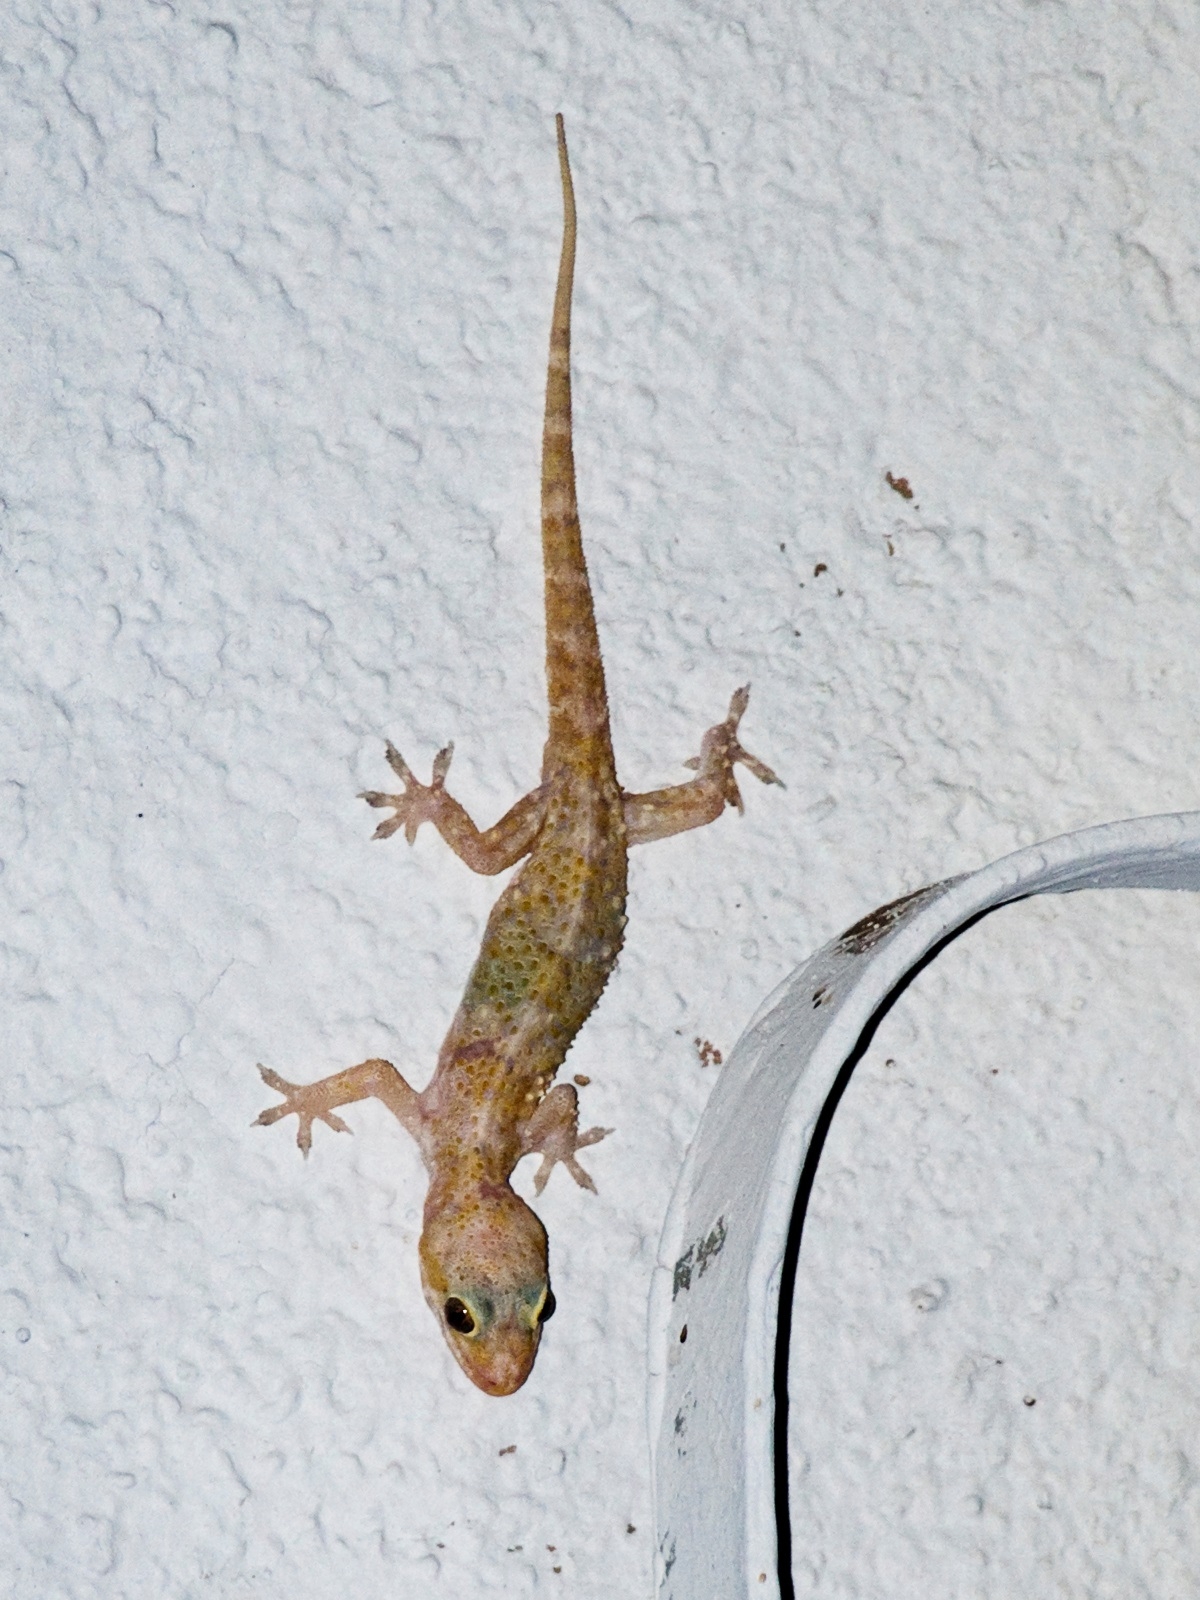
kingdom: Animalia
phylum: Chordata
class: Squamata
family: Gekkonidae
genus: Hemidactylus
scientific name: Hemidactylus turcicus
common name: Turkish gecko
